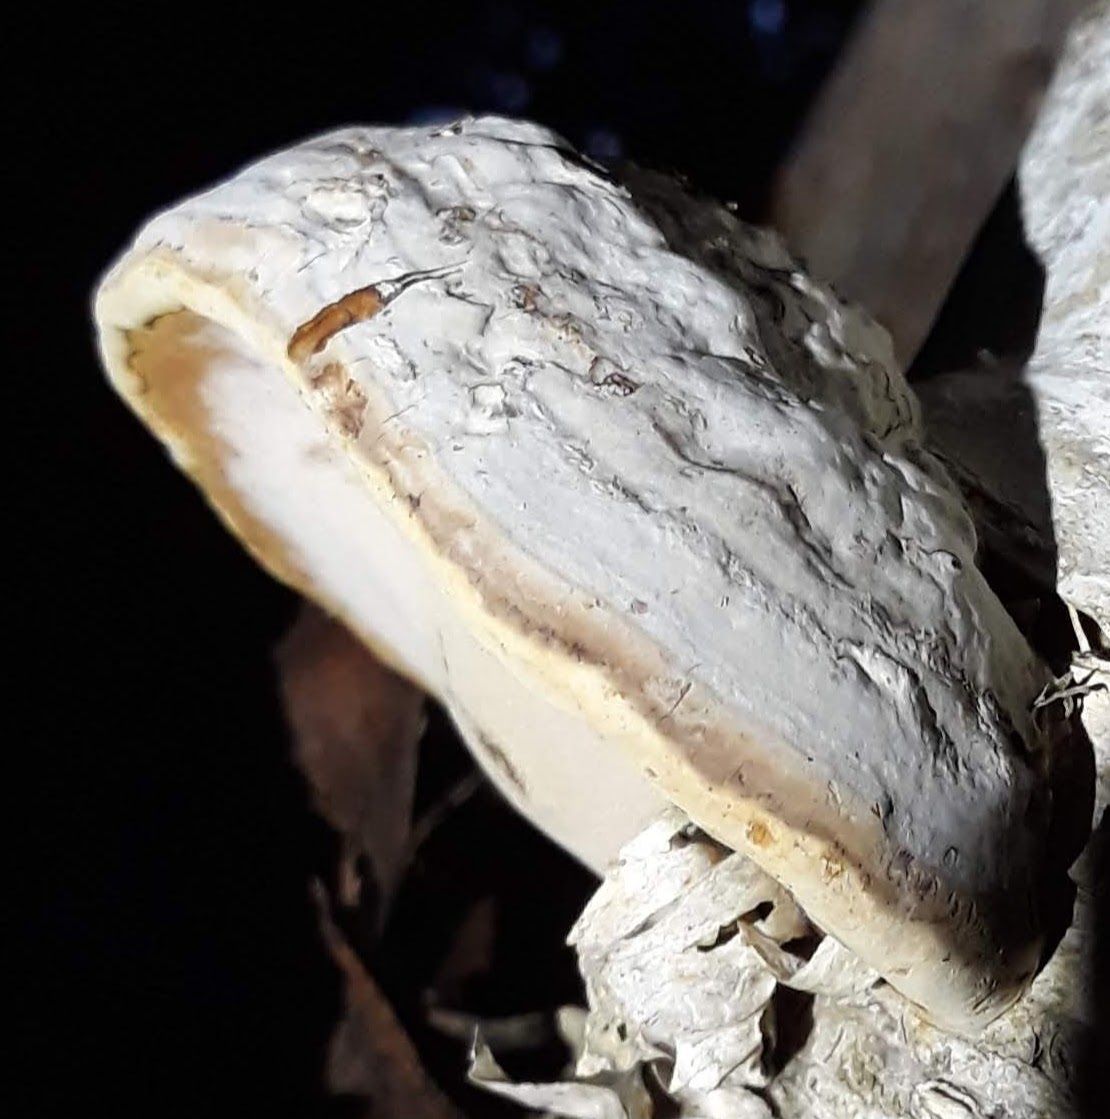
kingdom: Fungi
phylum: Basidiomycota
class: Agaricomycetes
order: Polyporales
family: Polyporaceae
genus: Fomes
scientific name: Fomes fomentarius
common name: Hoof fungus
